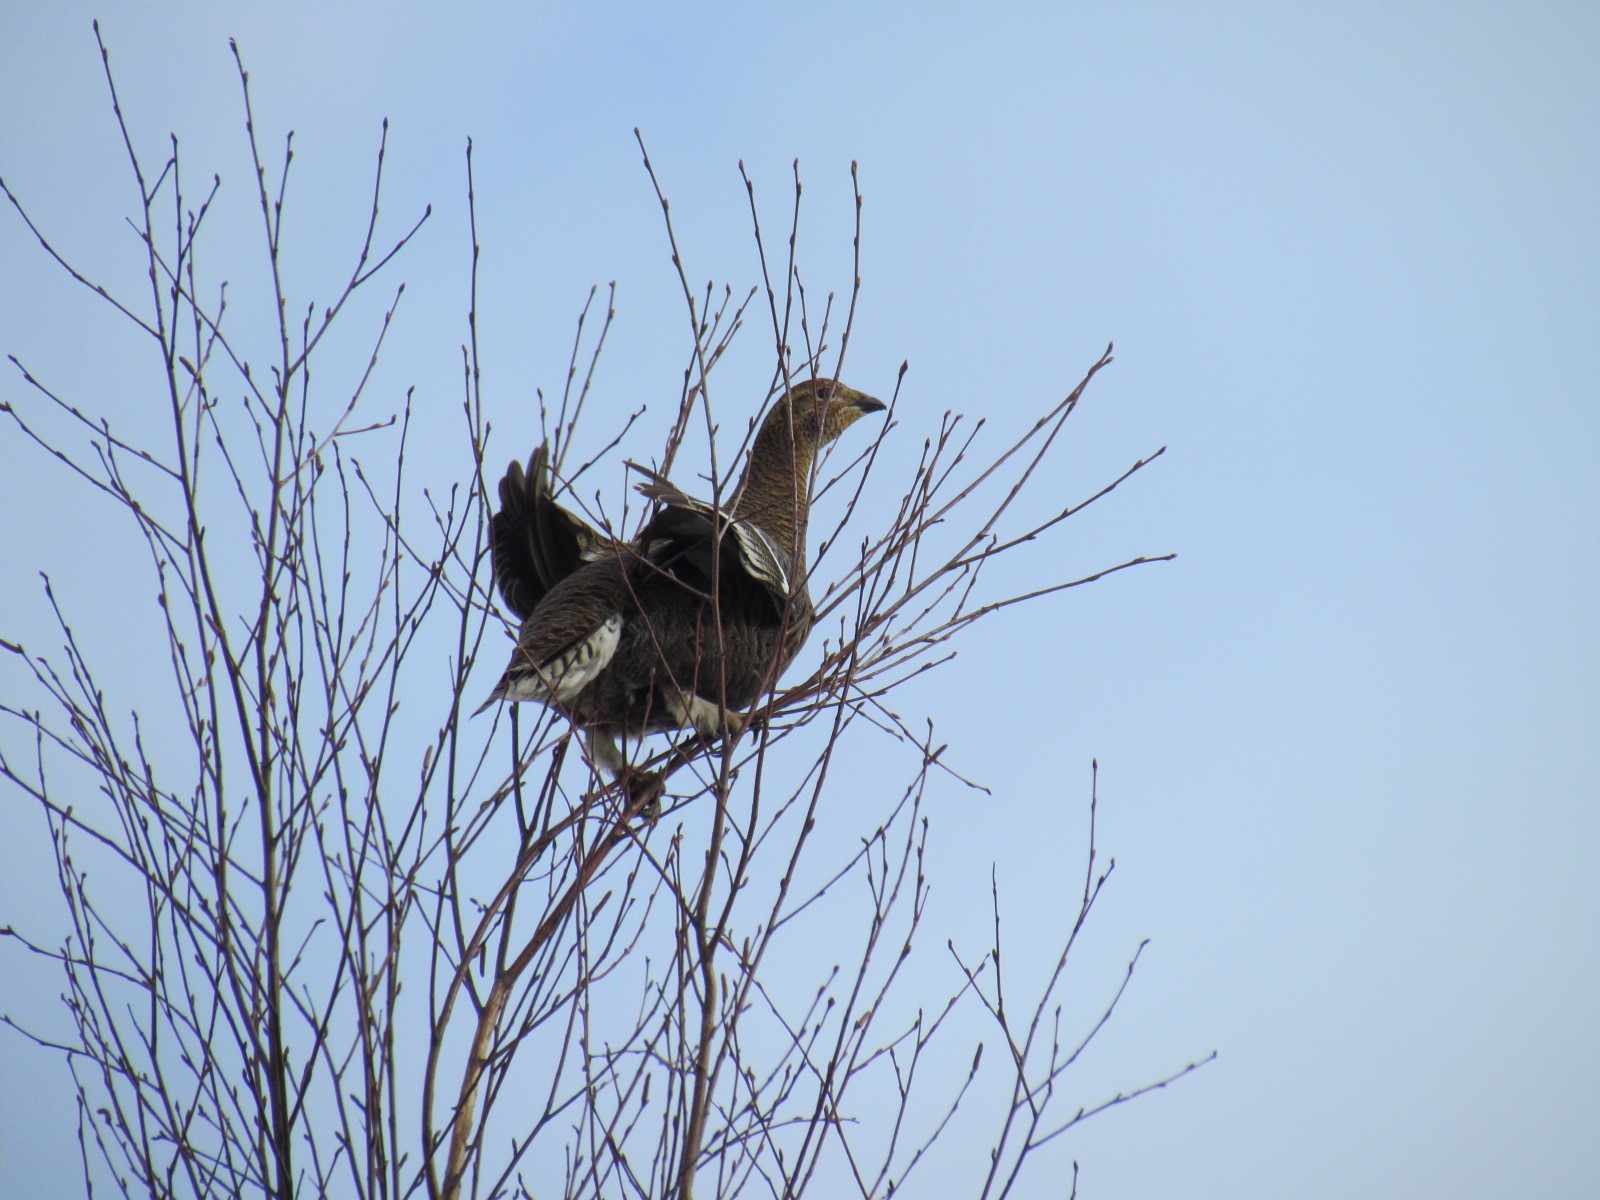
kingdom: Animalia
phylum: Chordata
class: Aves
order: Galliformes
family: Phasianidae
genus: Lyrurus
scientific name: Lyrurus tetrix
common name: Black grouse
